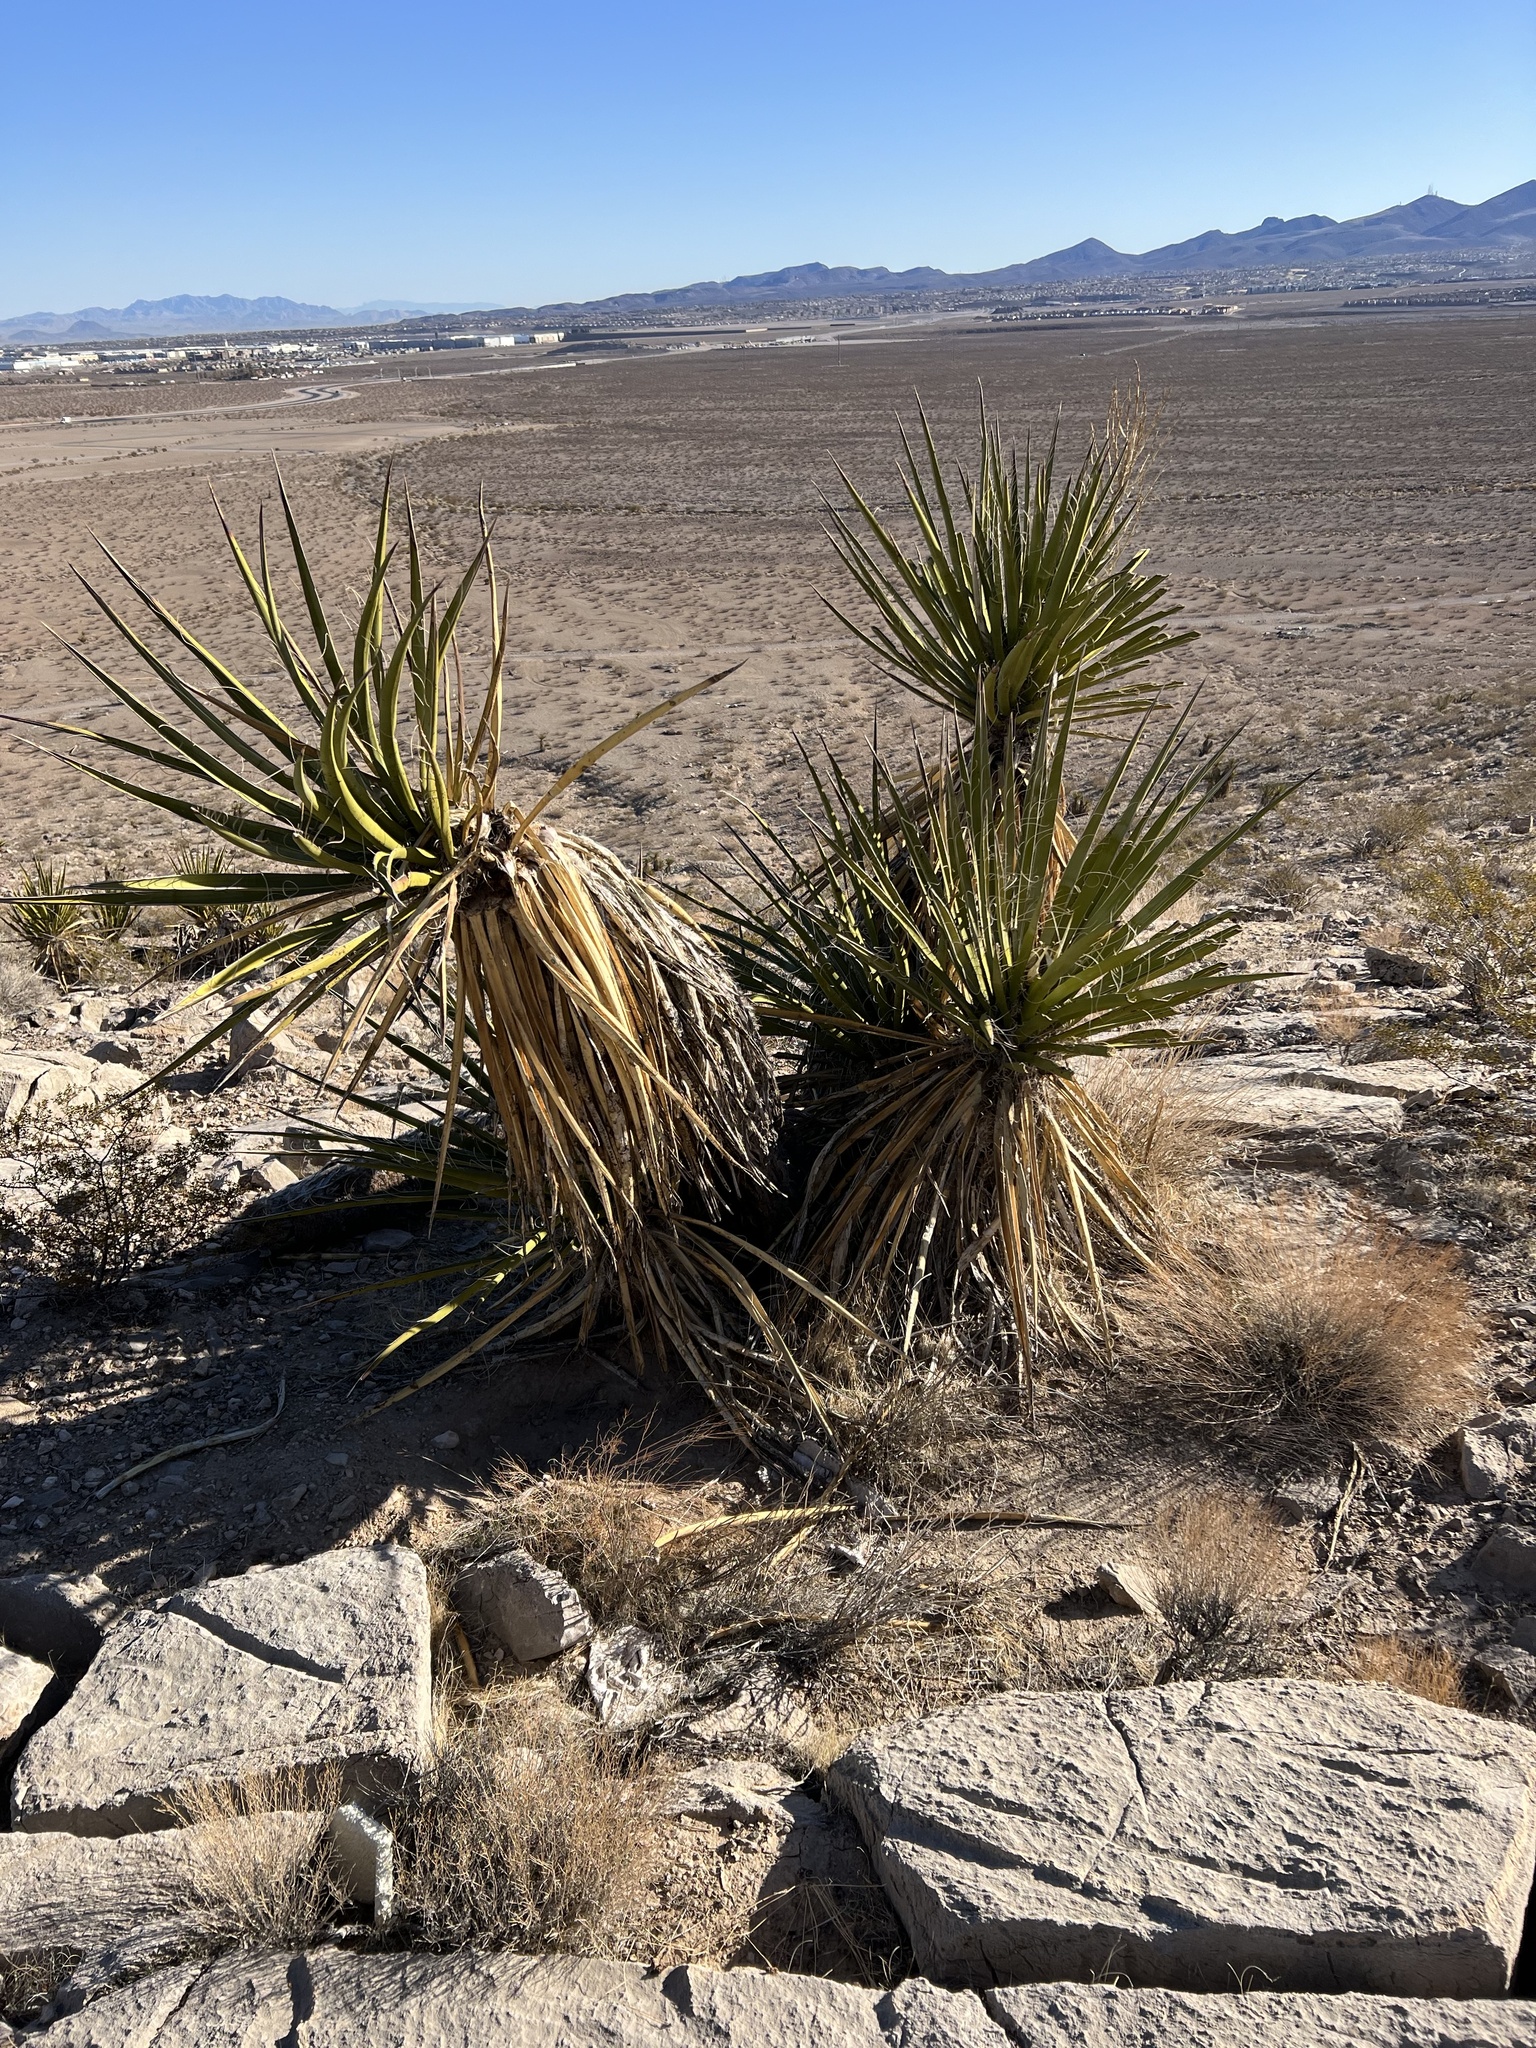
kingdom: Plantae
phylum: Tracheophyta
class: Liliopsida
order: Asparagales
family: Asparagaceae
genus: Yucca
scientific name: Yucca schidigera
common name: Mojave yucca
